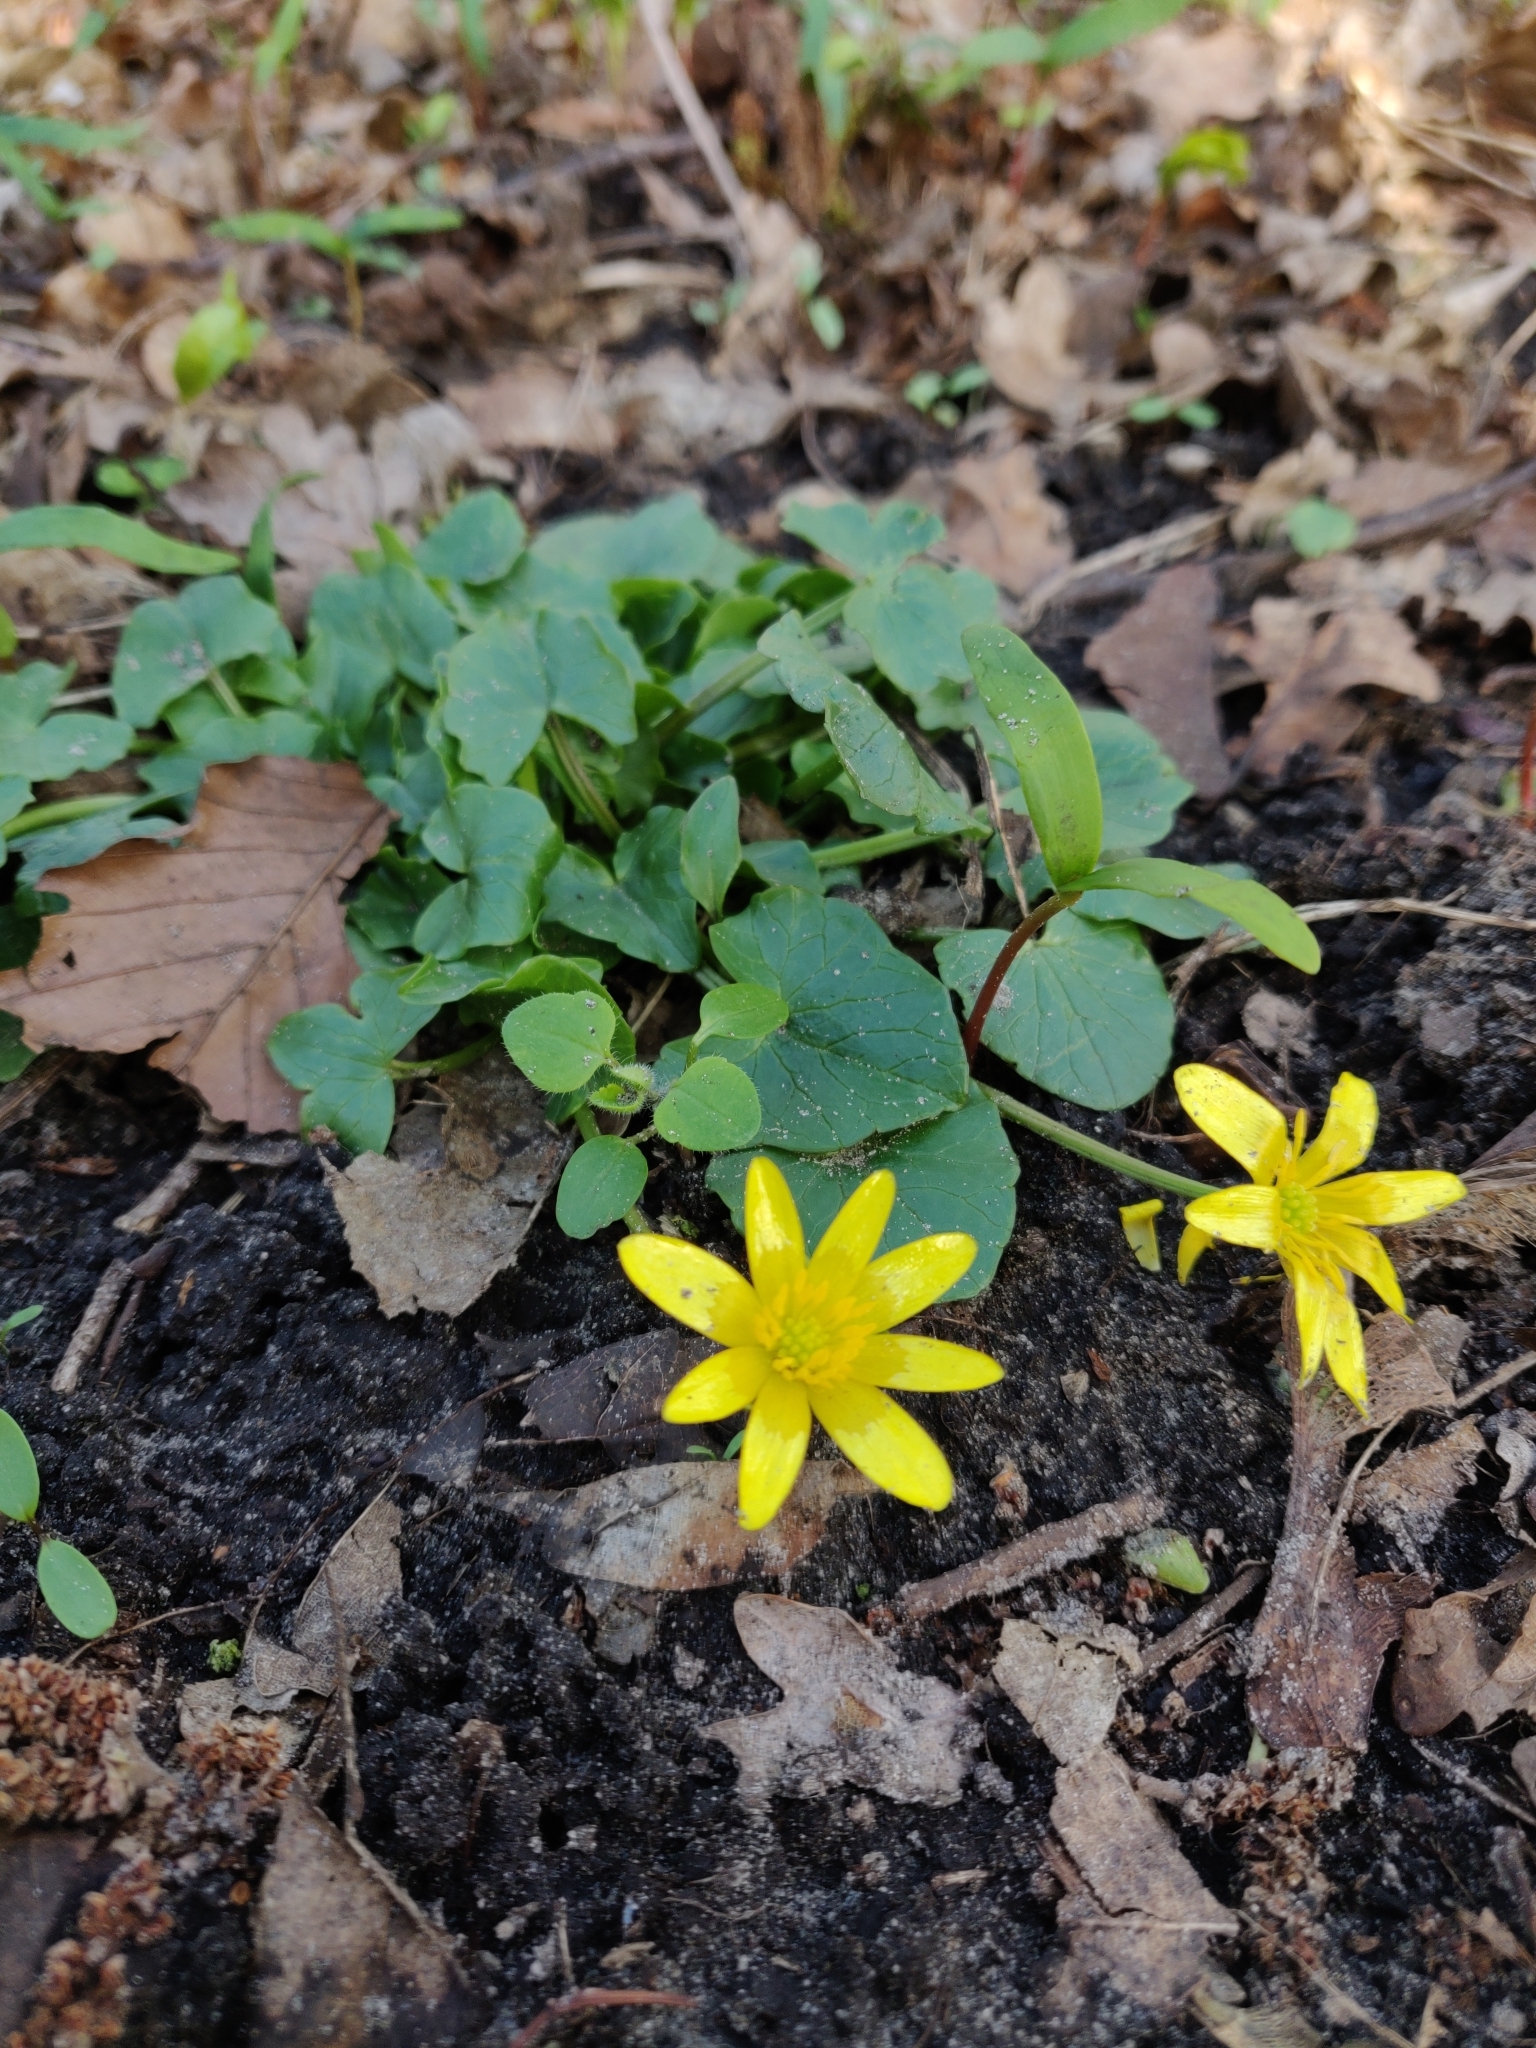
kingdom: Plantae
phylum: Tracheophyta
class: Magnoliopsida
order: Ranunculales
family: Ranunculaceae
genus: Ficaria
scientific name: Ficaria verna
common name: Lesser celandine
